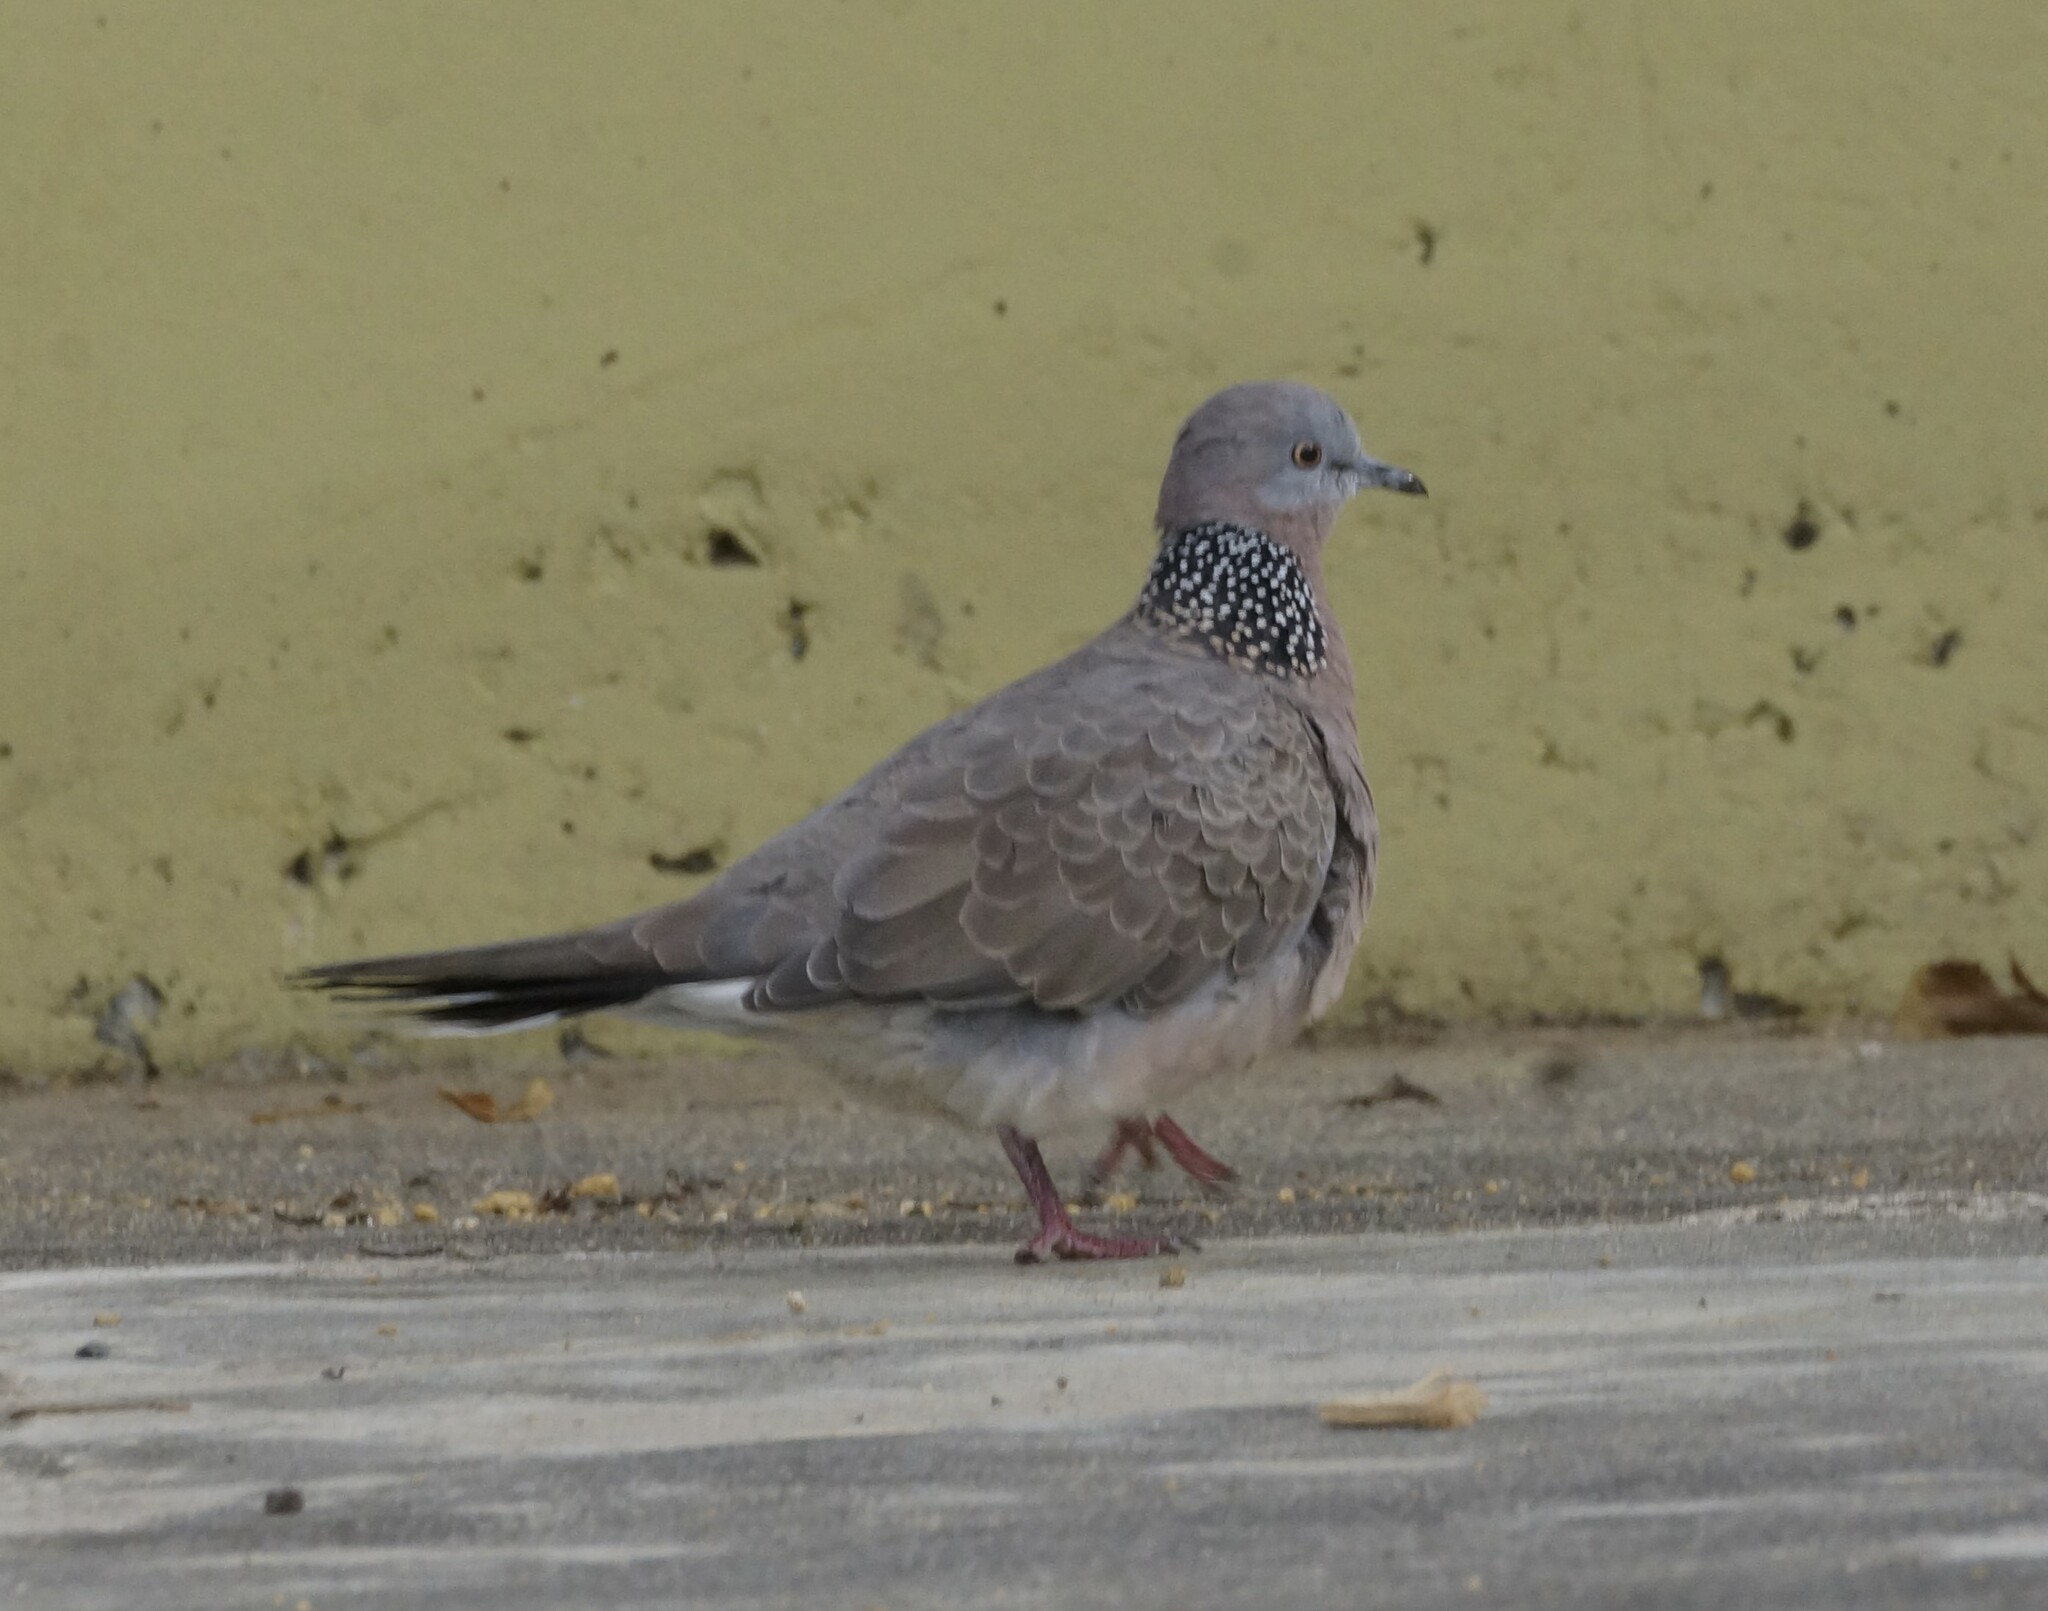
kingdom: Animalia
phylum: Chordata
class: Aves
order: Columbiformes
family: Columbidae
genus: Spilopelia
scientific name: Spilopelia chinensis
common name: Spotted dove
